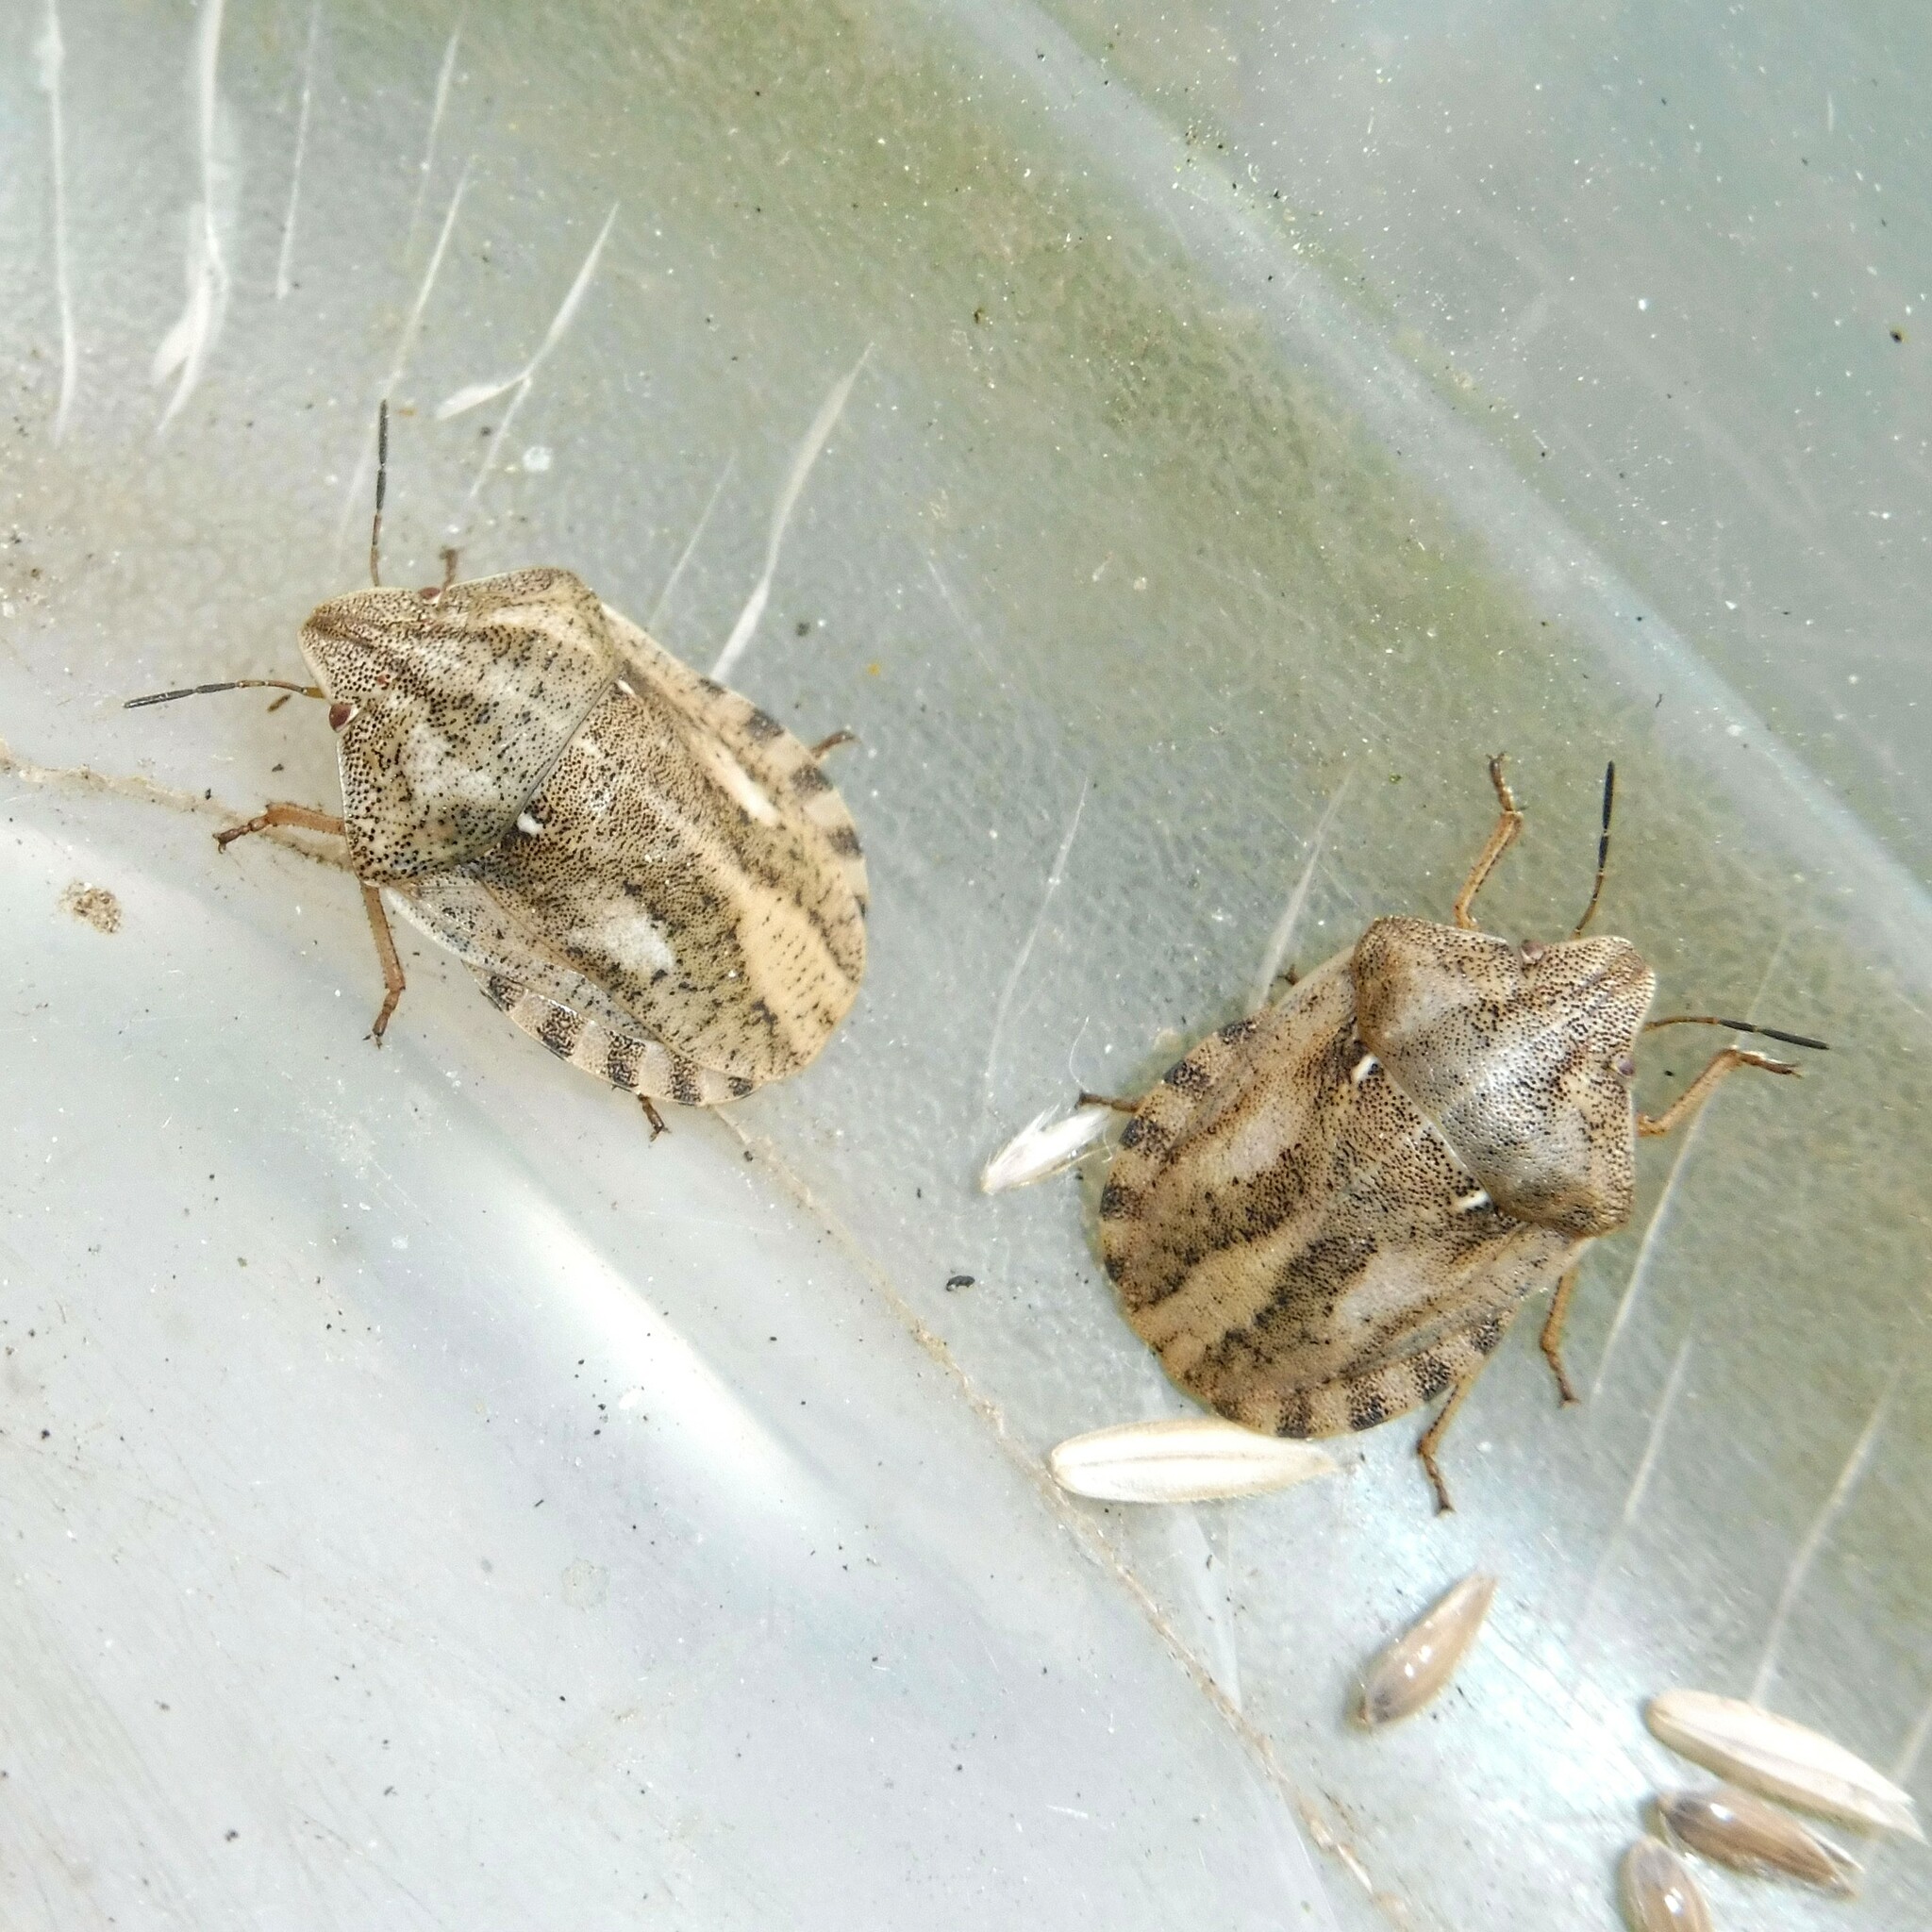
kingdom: Animalia
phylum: Arthropoda
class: Insecta
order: Hemiptera
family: Scutelleridae
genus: Eurygaster
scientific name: Eurygaster testudinaria
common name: Tortoise bug
